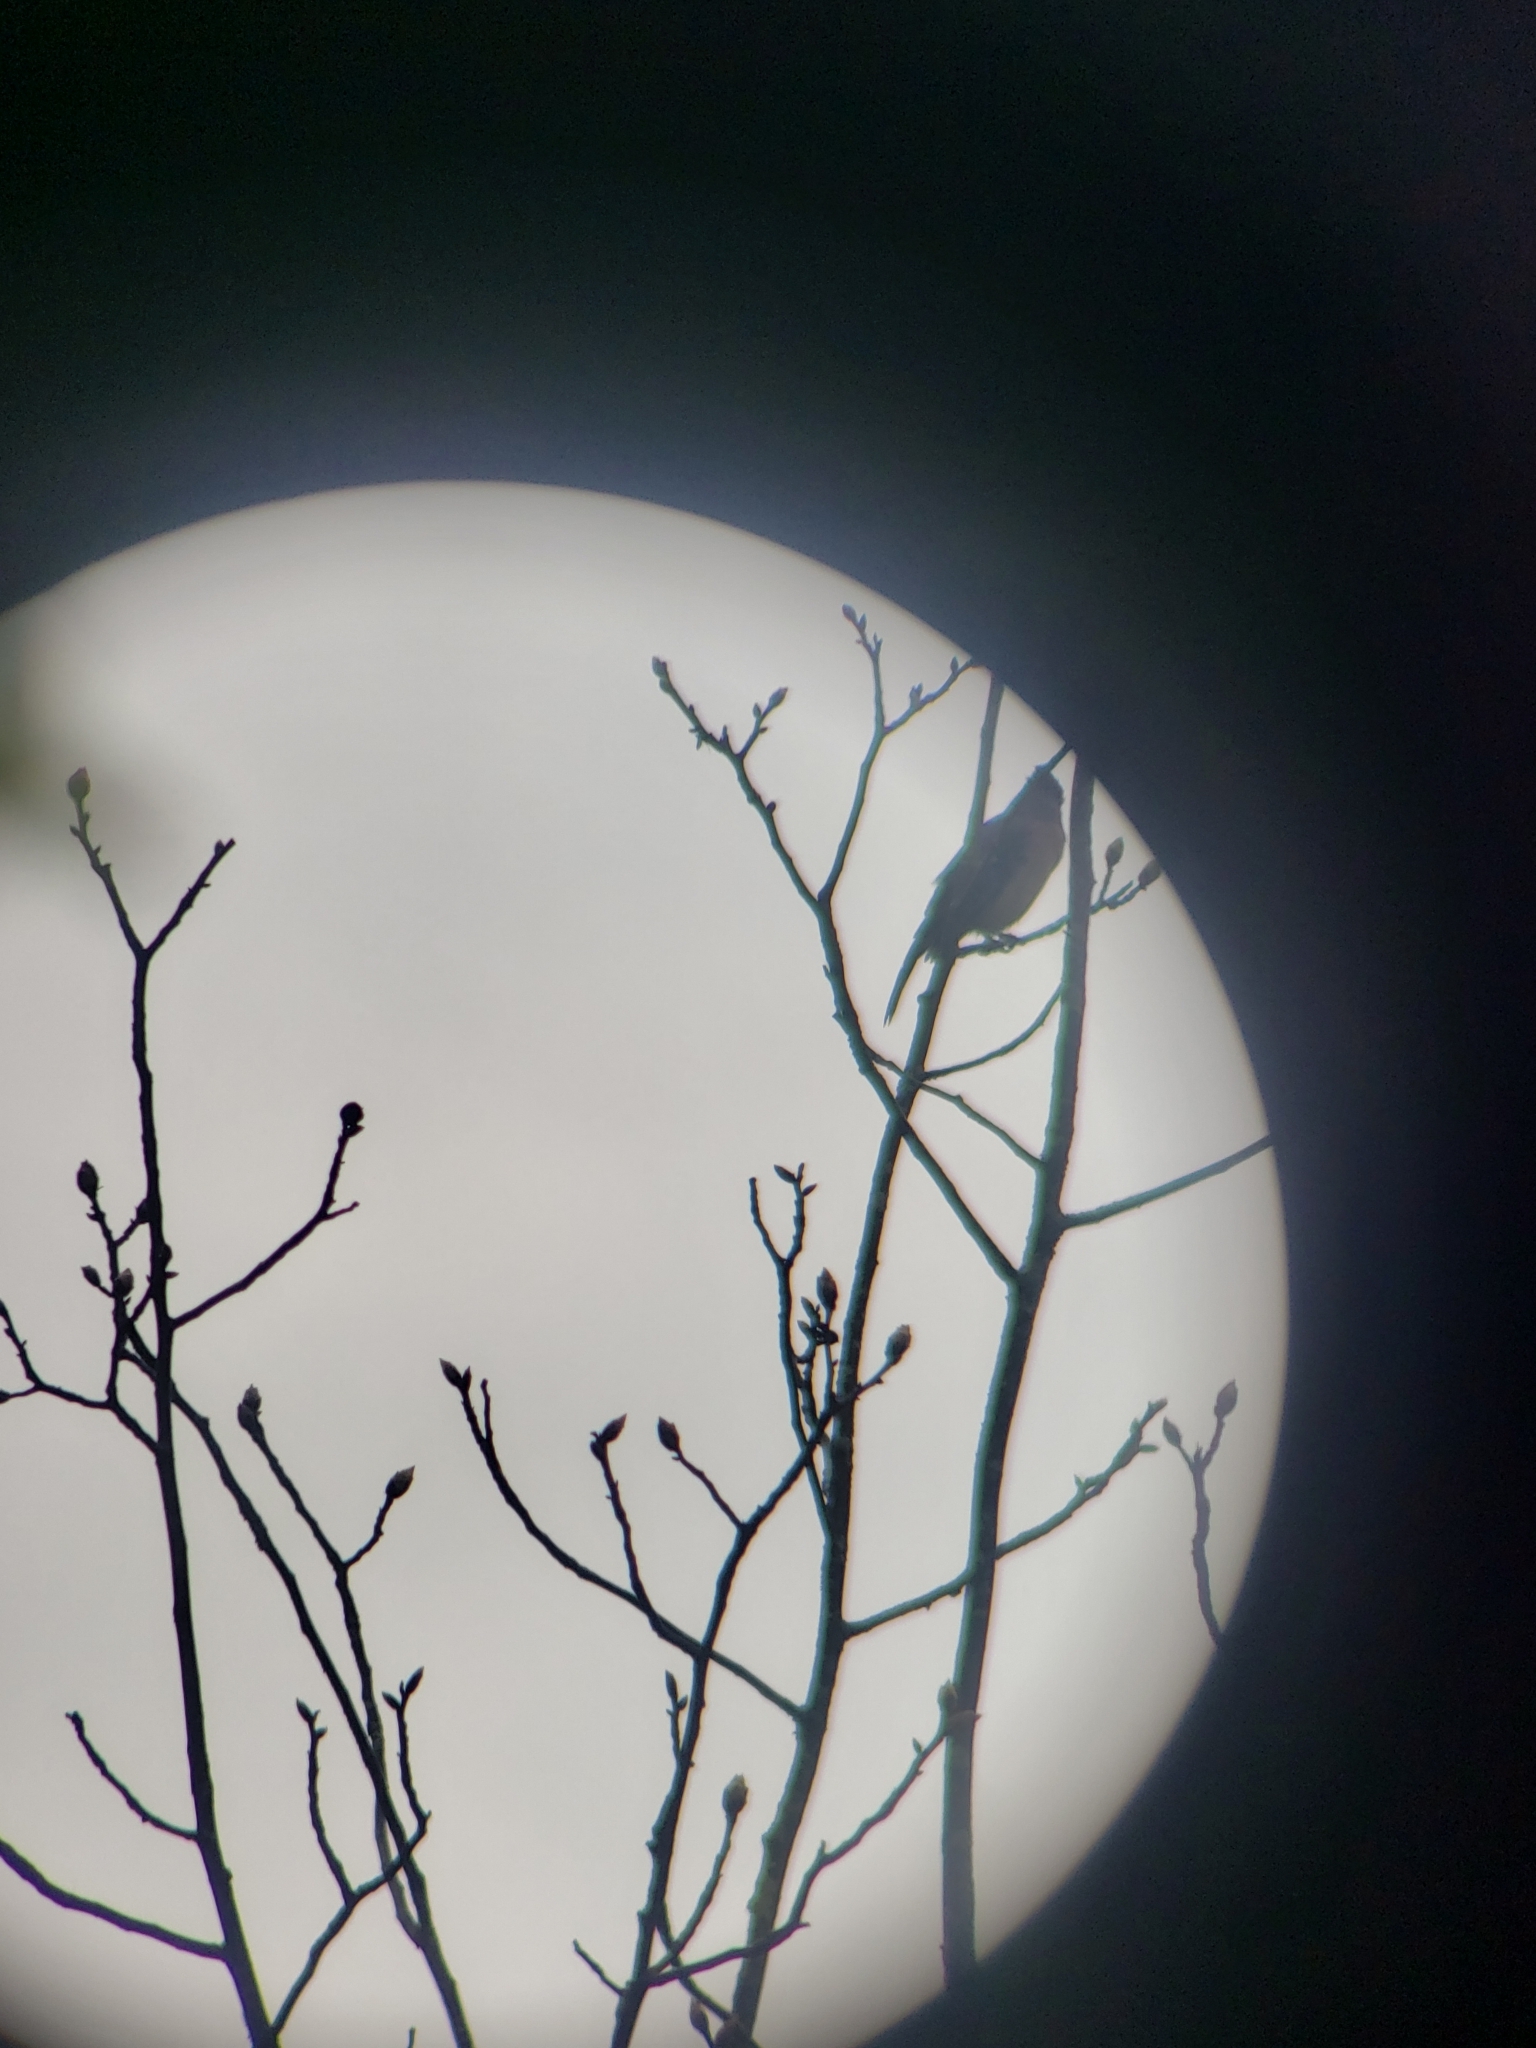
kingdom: Animalia
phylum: Chordata
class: Aves
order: Passeriformes
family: Corvidae
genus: Cyanocitta
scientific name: Cyanocitta cristata
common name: Blue jay
